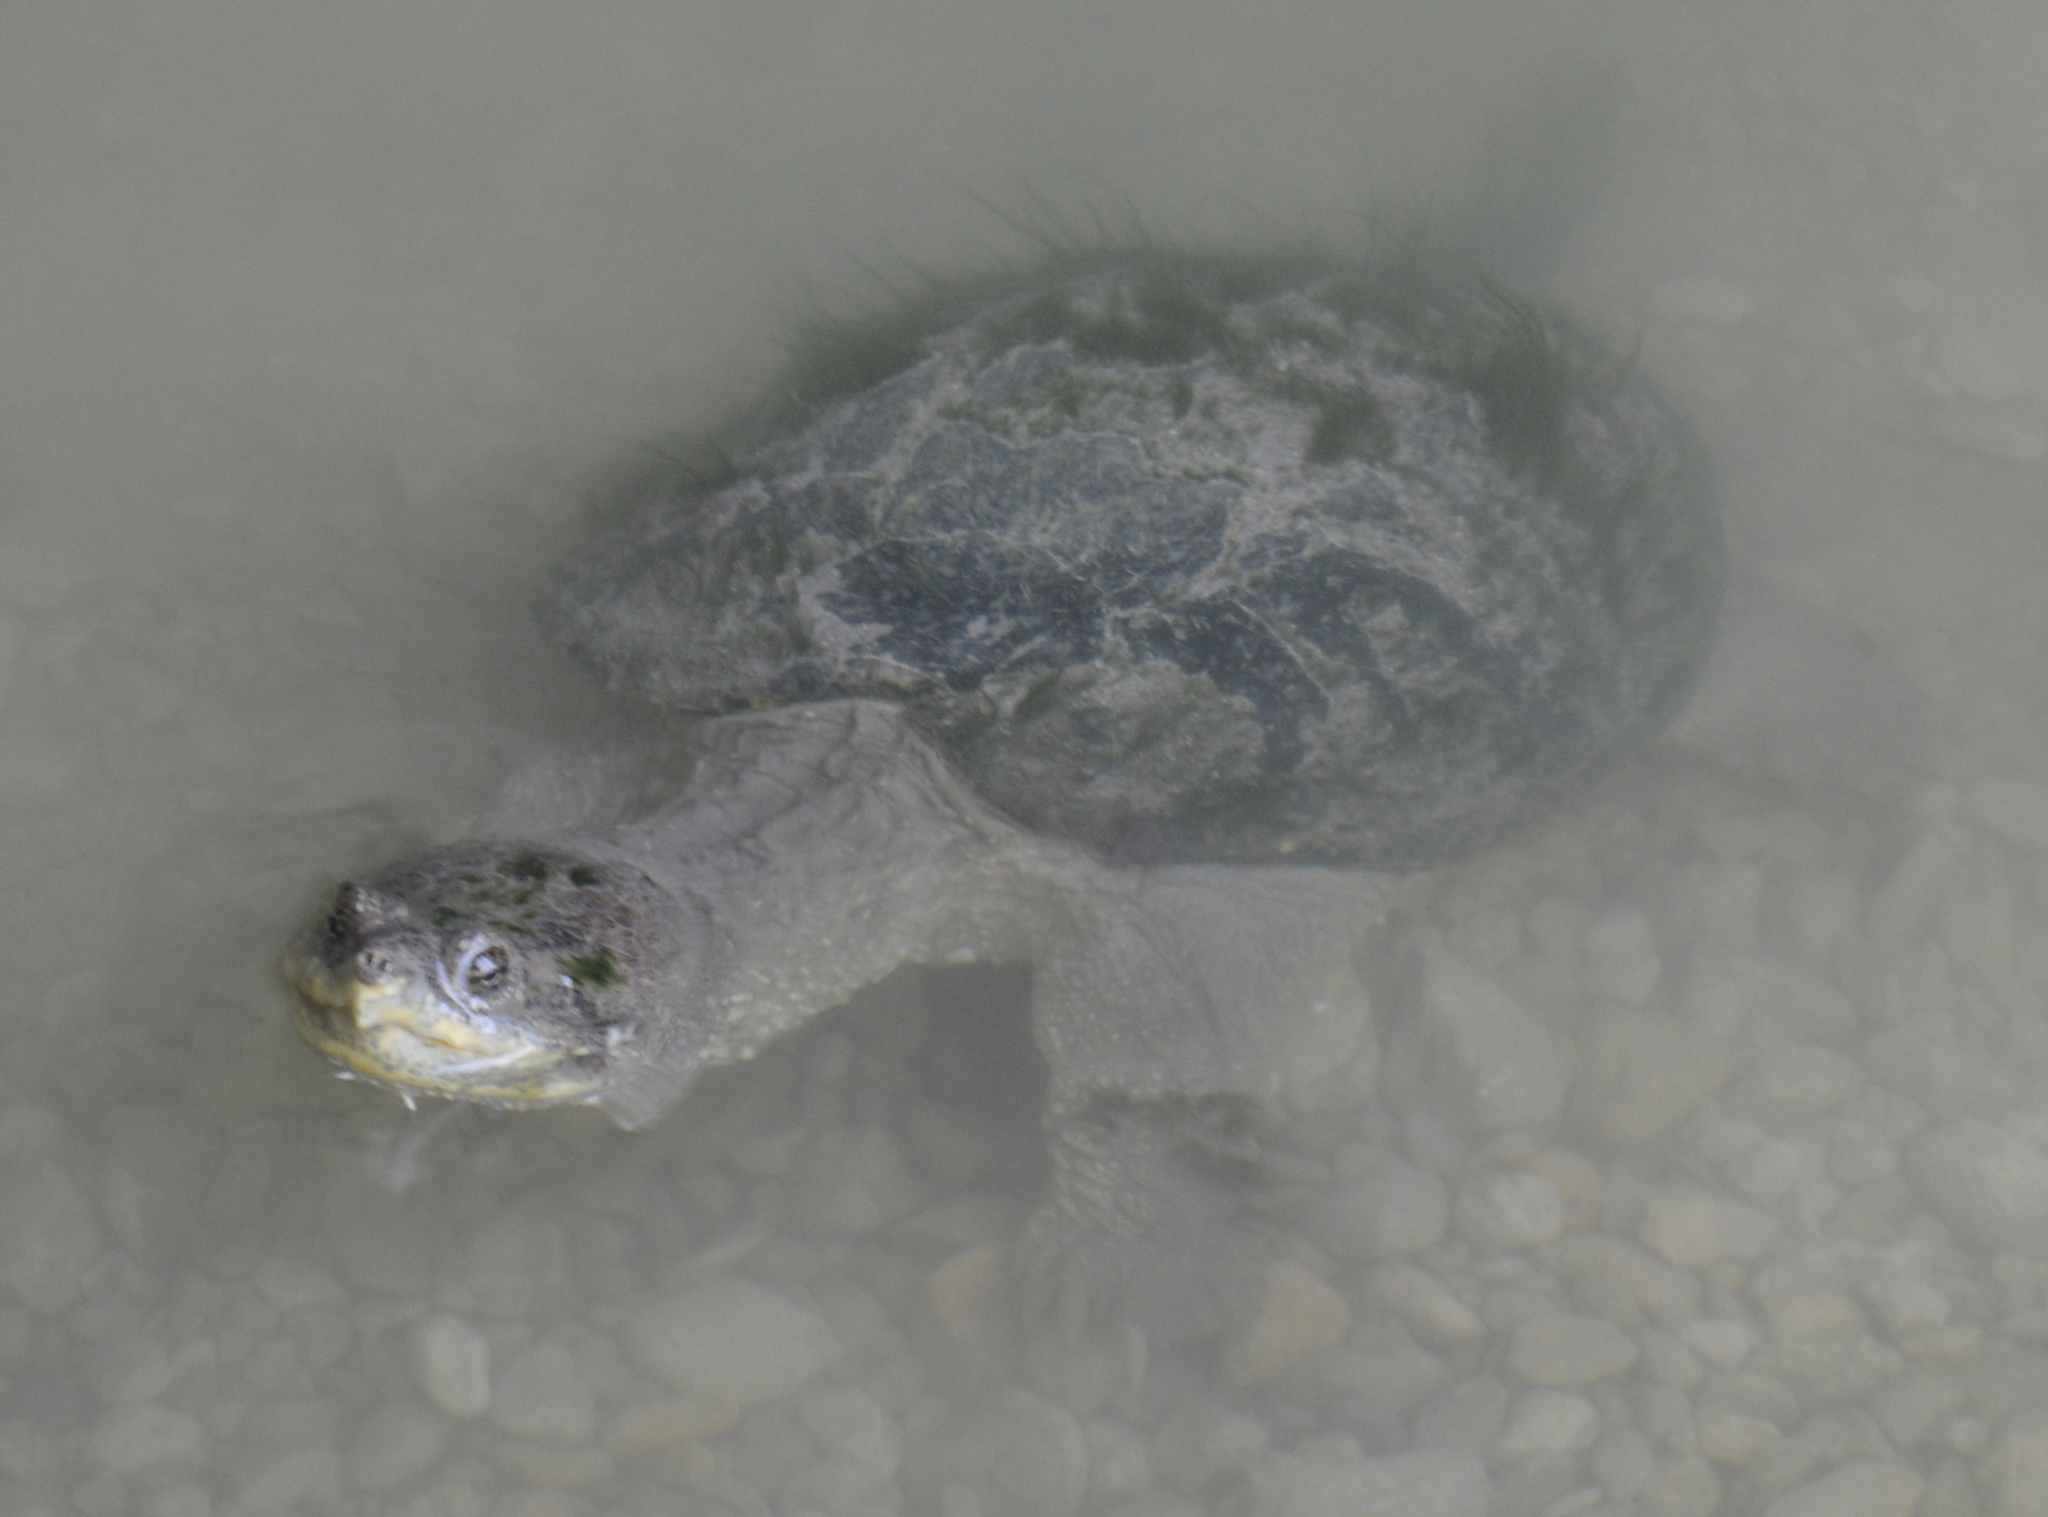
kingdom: Animalia
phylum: Chordata
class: Testudines
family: Chelydridae
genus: Chelydra
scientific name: Chelydra serpentina
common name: Common snapping turtle
